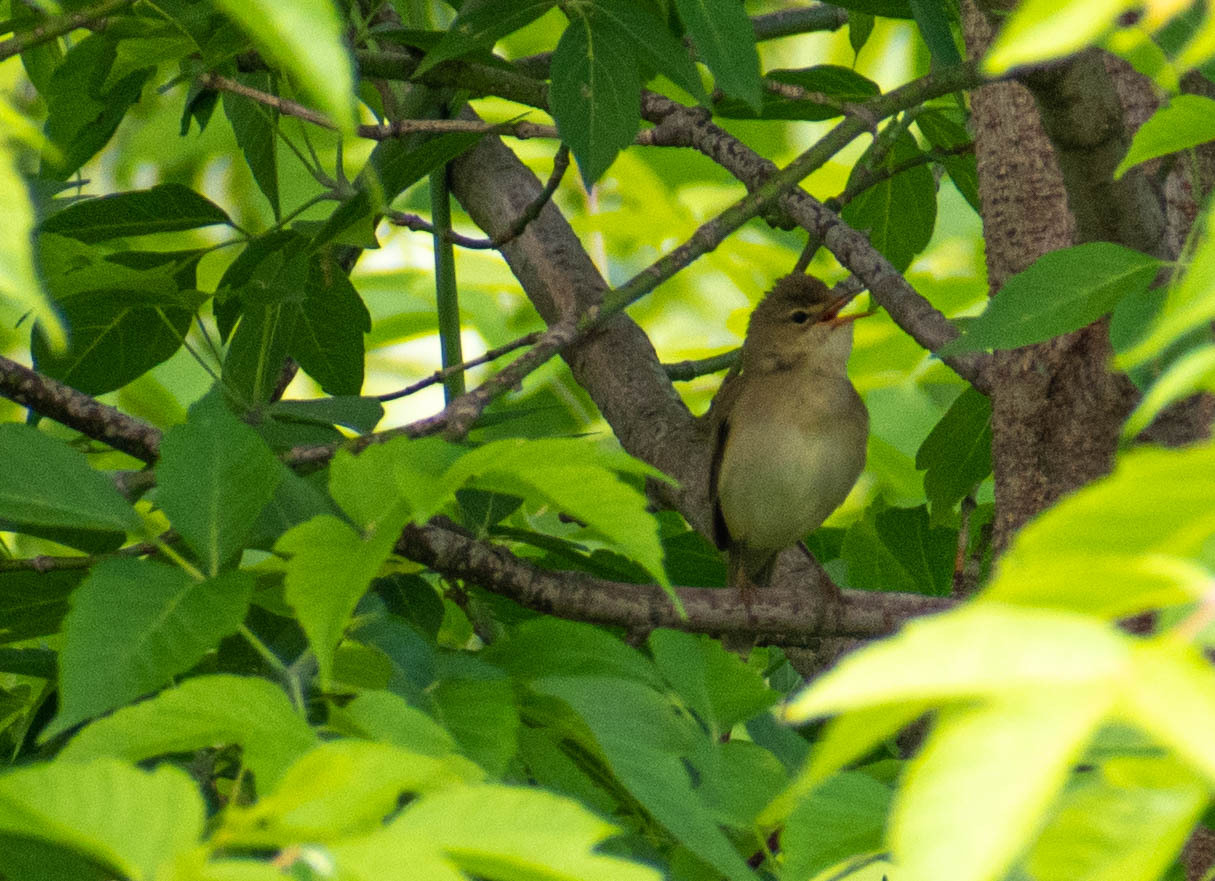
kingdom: Animalia
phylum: Chordata
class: Aves
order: Passeriformes
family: Acrocephalidae
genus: Acrocephalus
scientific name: Acrocephalus palustris
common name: Marsh warbler
